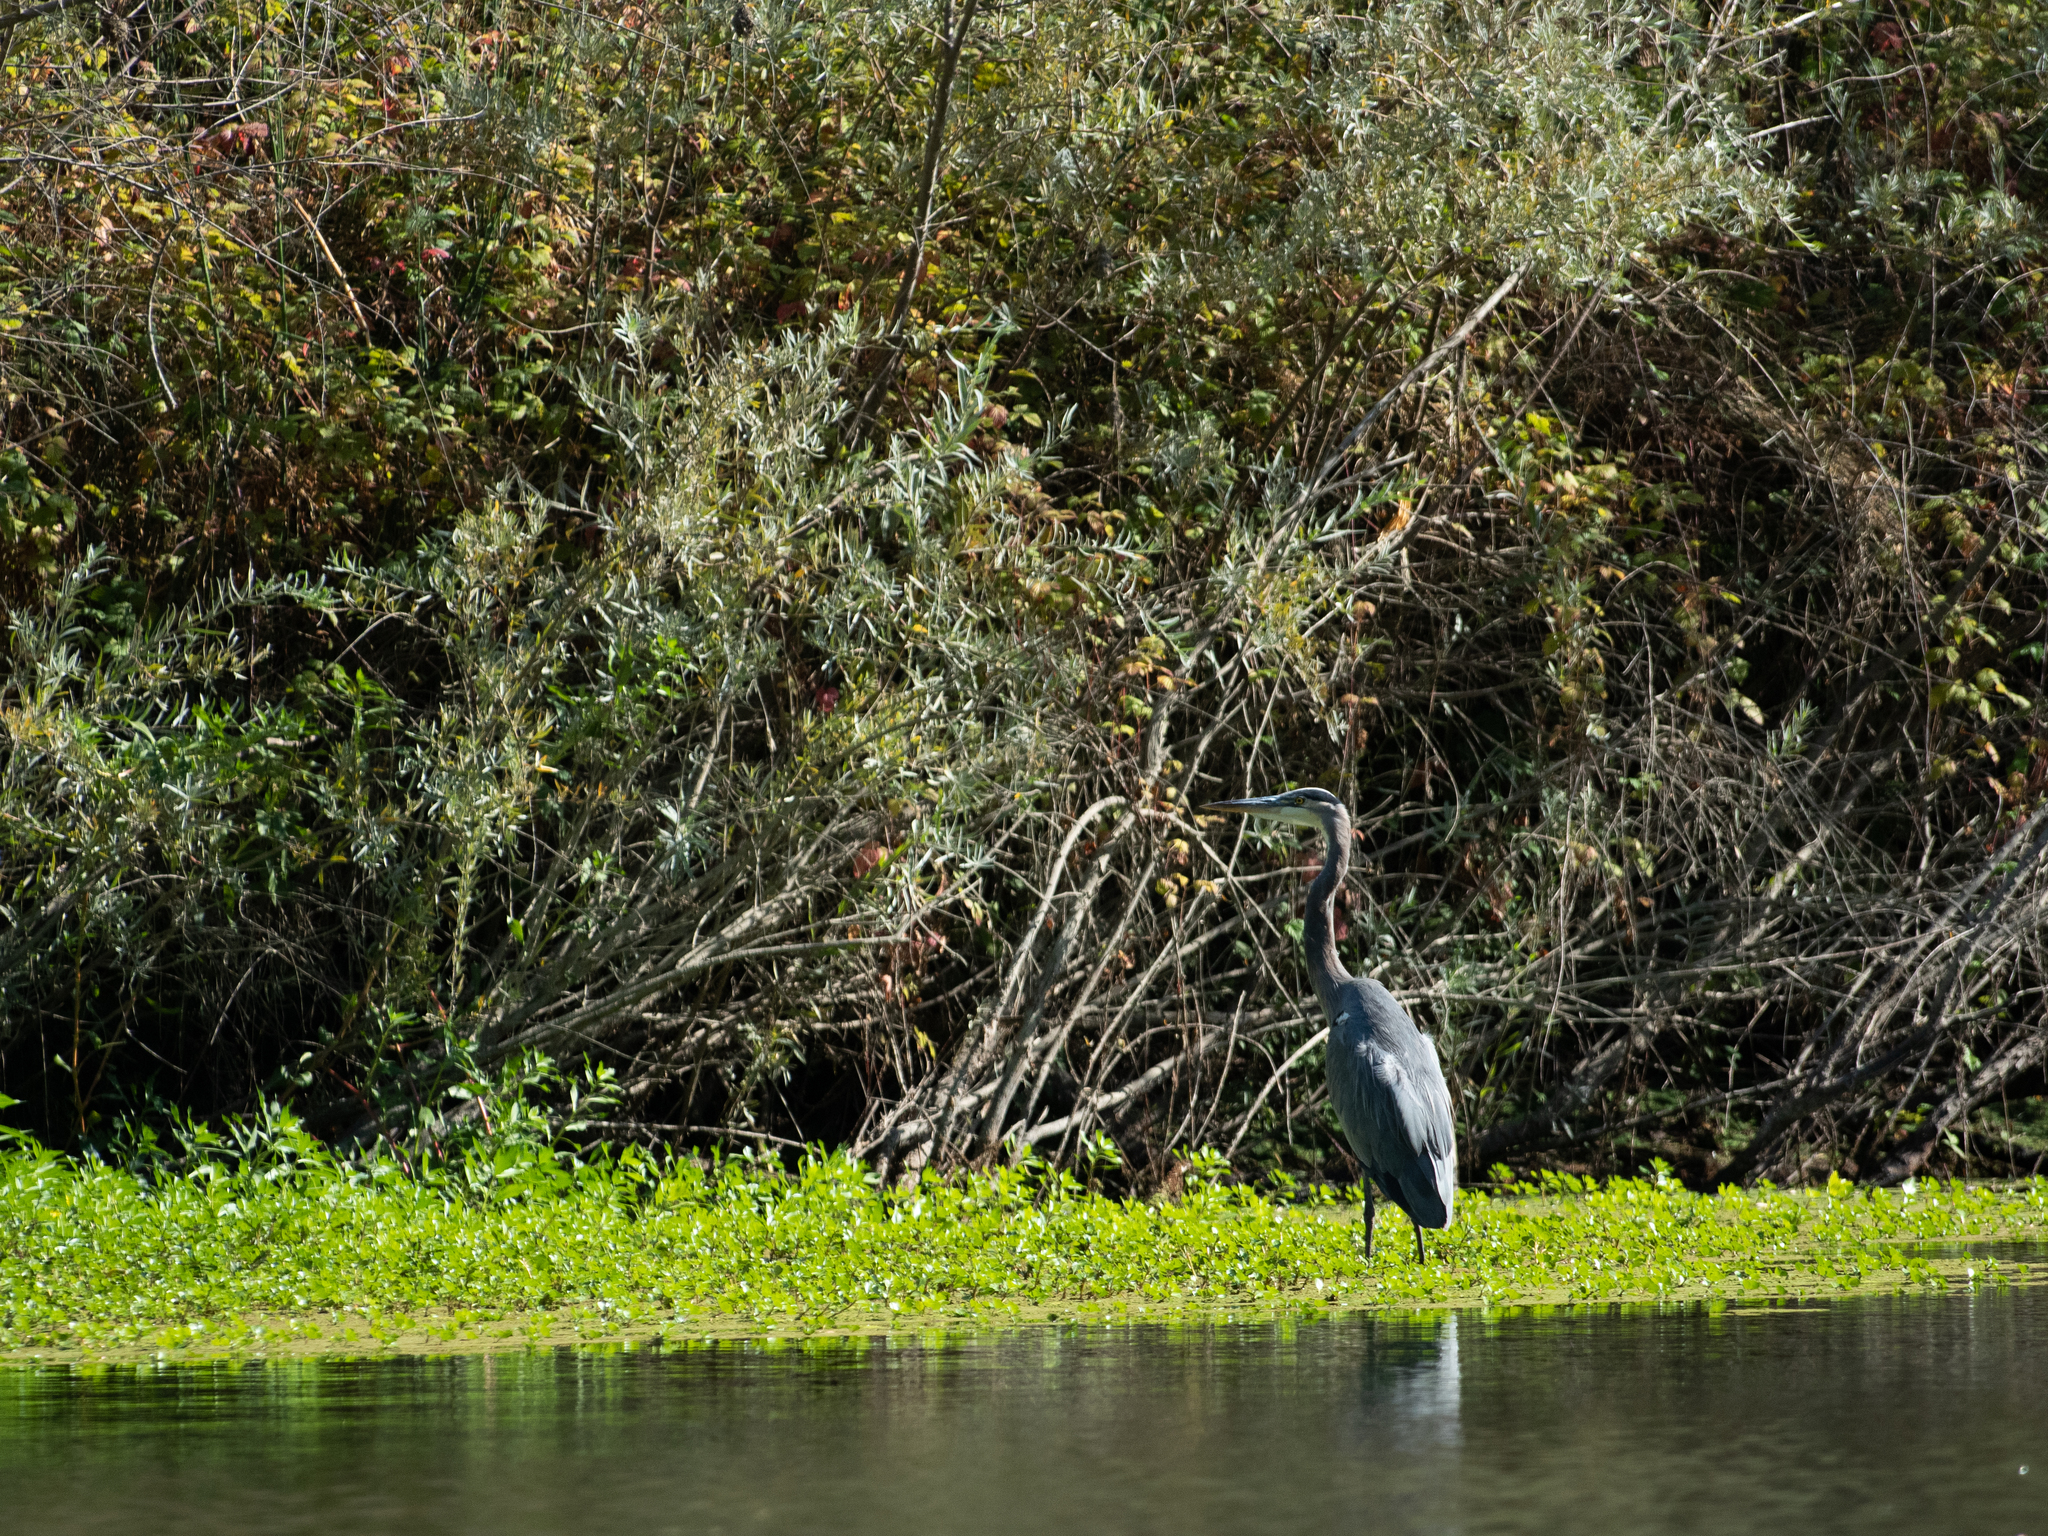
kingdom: Animalia
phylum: Chordata
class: Aves
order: Pelecaniformes
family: Ardeidae
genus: Ardea
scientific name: Ardea herodias
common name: Great blue heron
